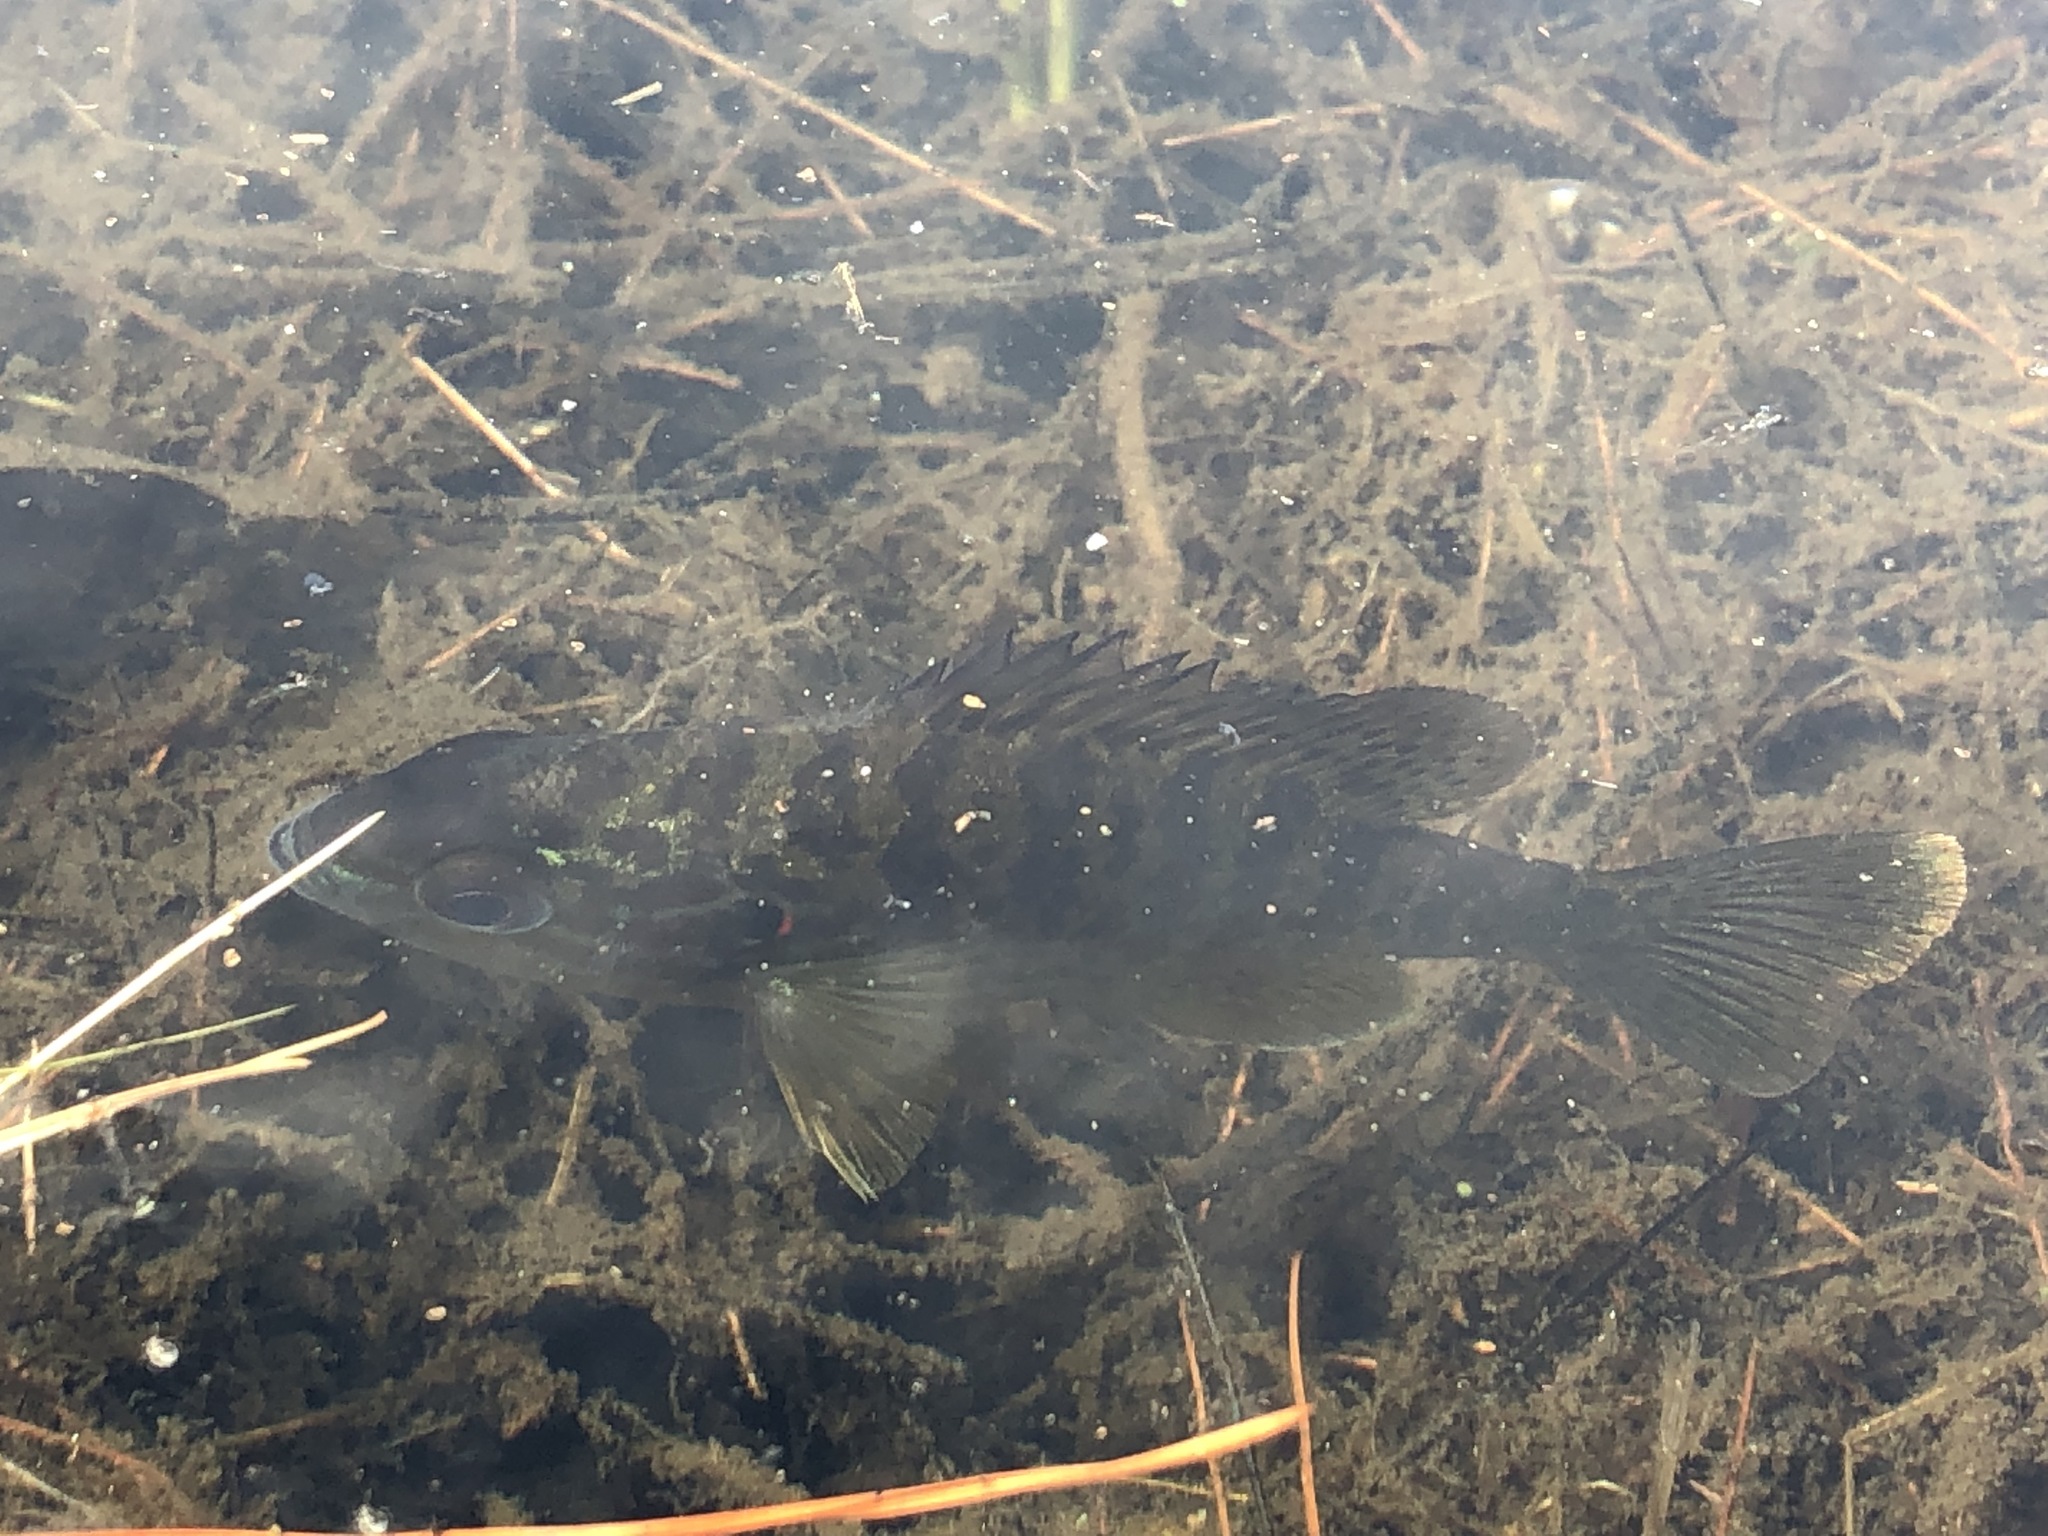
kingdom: Animalia
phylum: Chordata
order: Perciformes
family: Centrarchidae
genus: Lepomis
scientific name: Lepomis gibbosus
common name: Pumpkinseed
